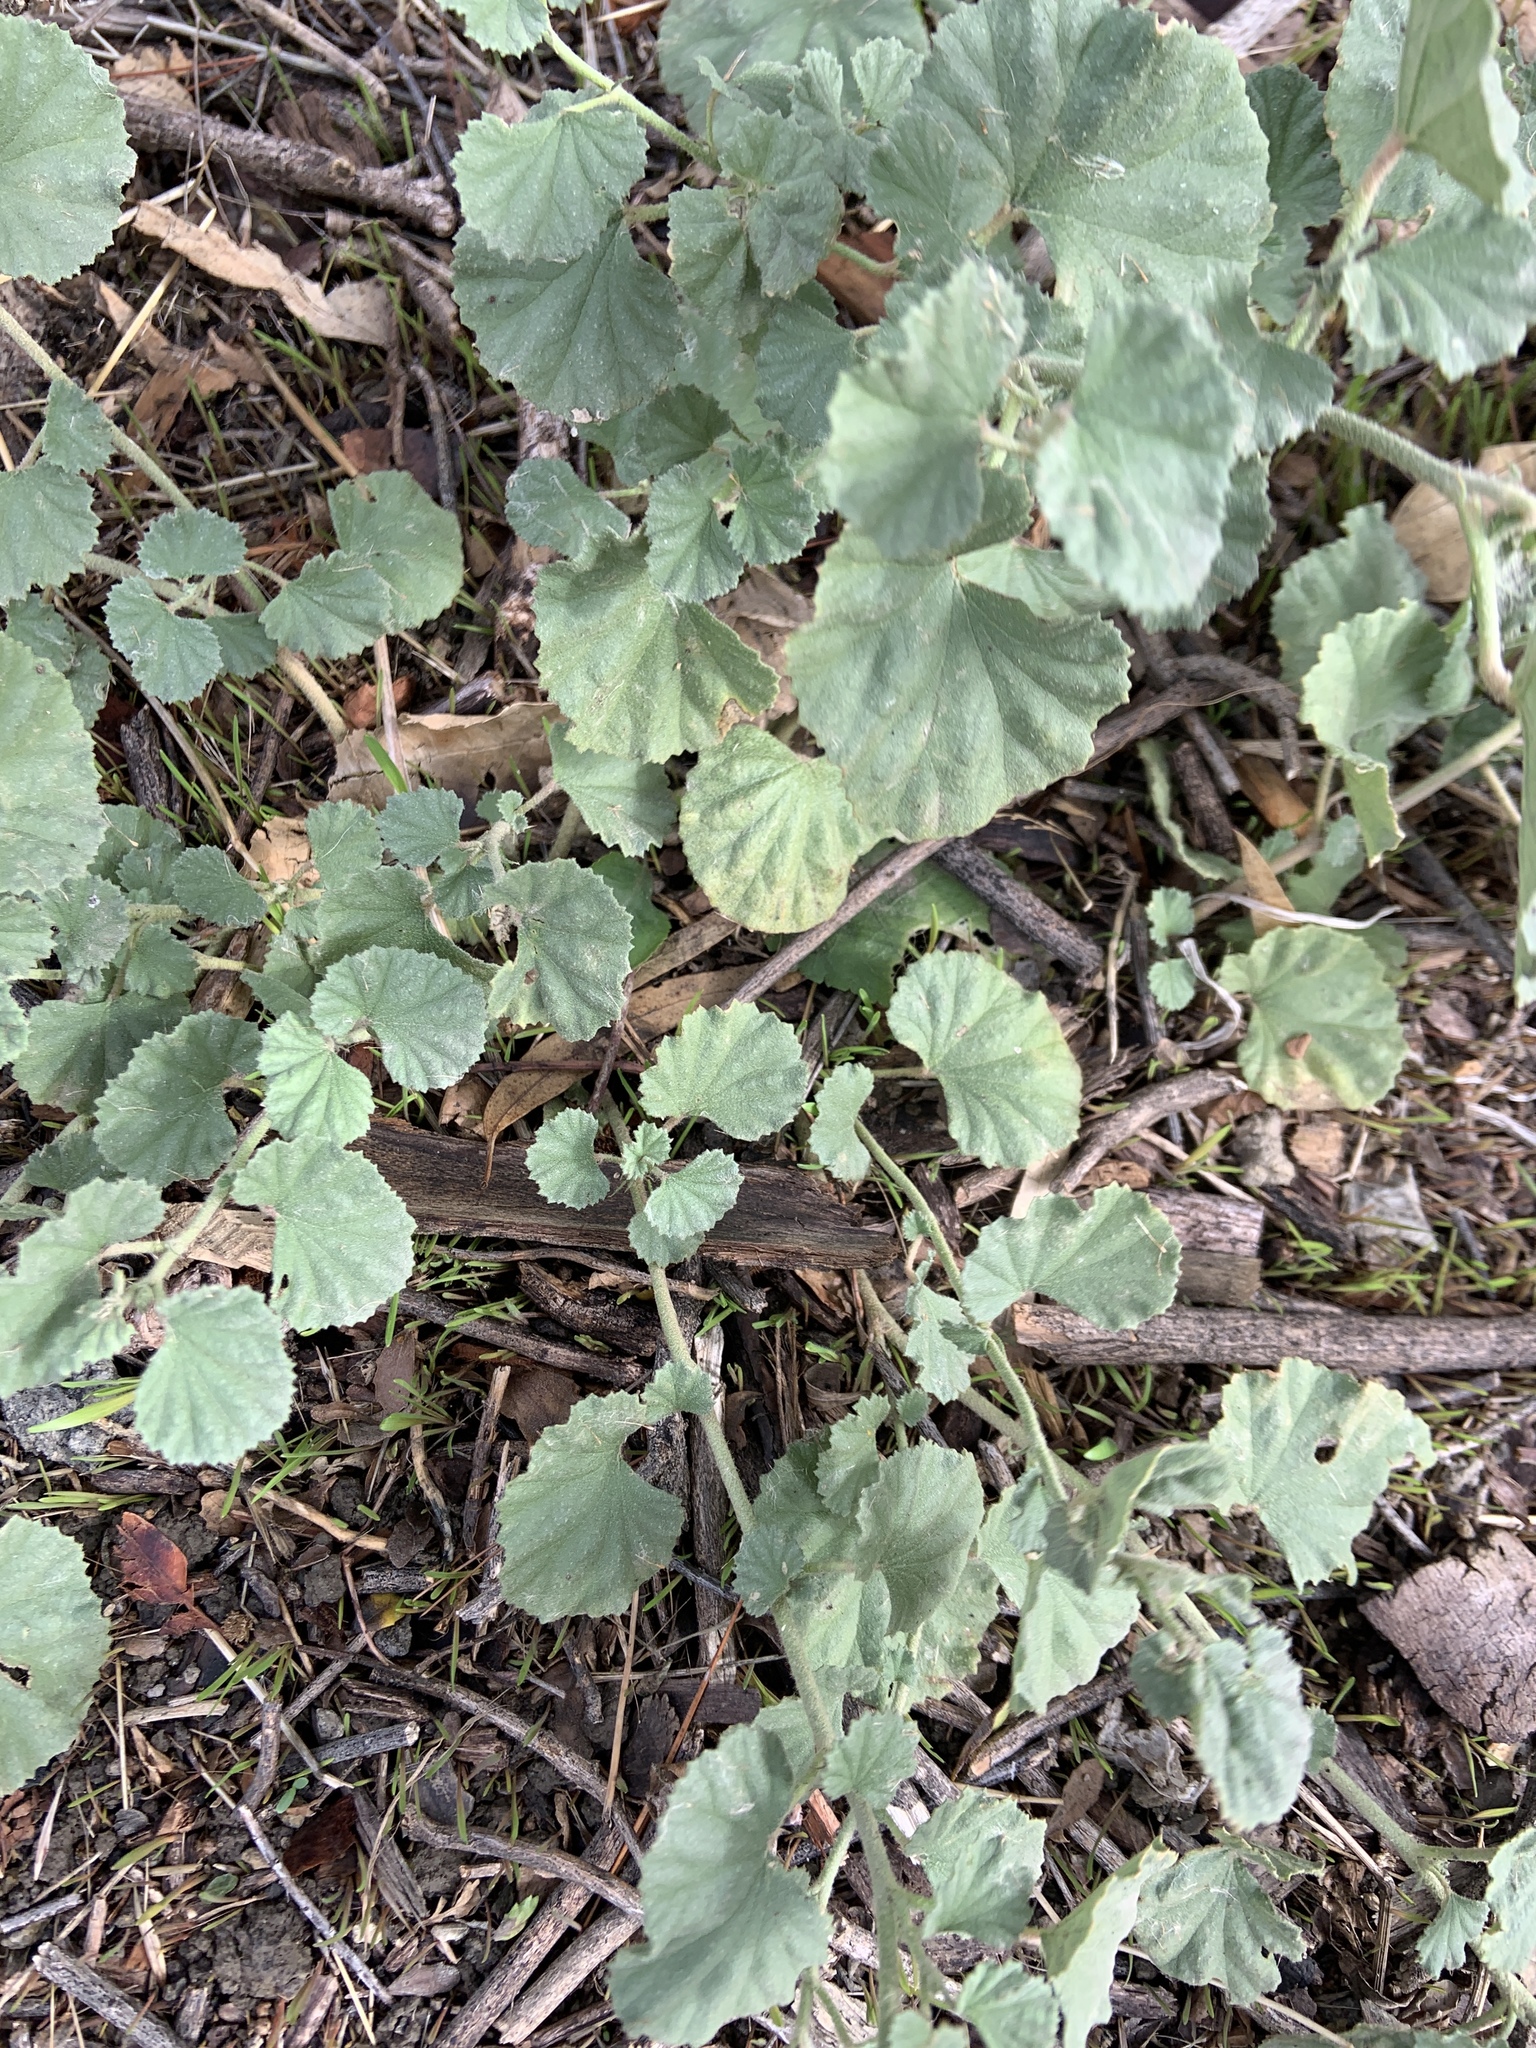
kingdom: Plantae
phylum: Tracheophyta
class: Magnoliopsida
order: Malvales
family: Malvaceae
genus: Malvella
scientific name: Malvella leprosa
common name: Alkali-mallow
